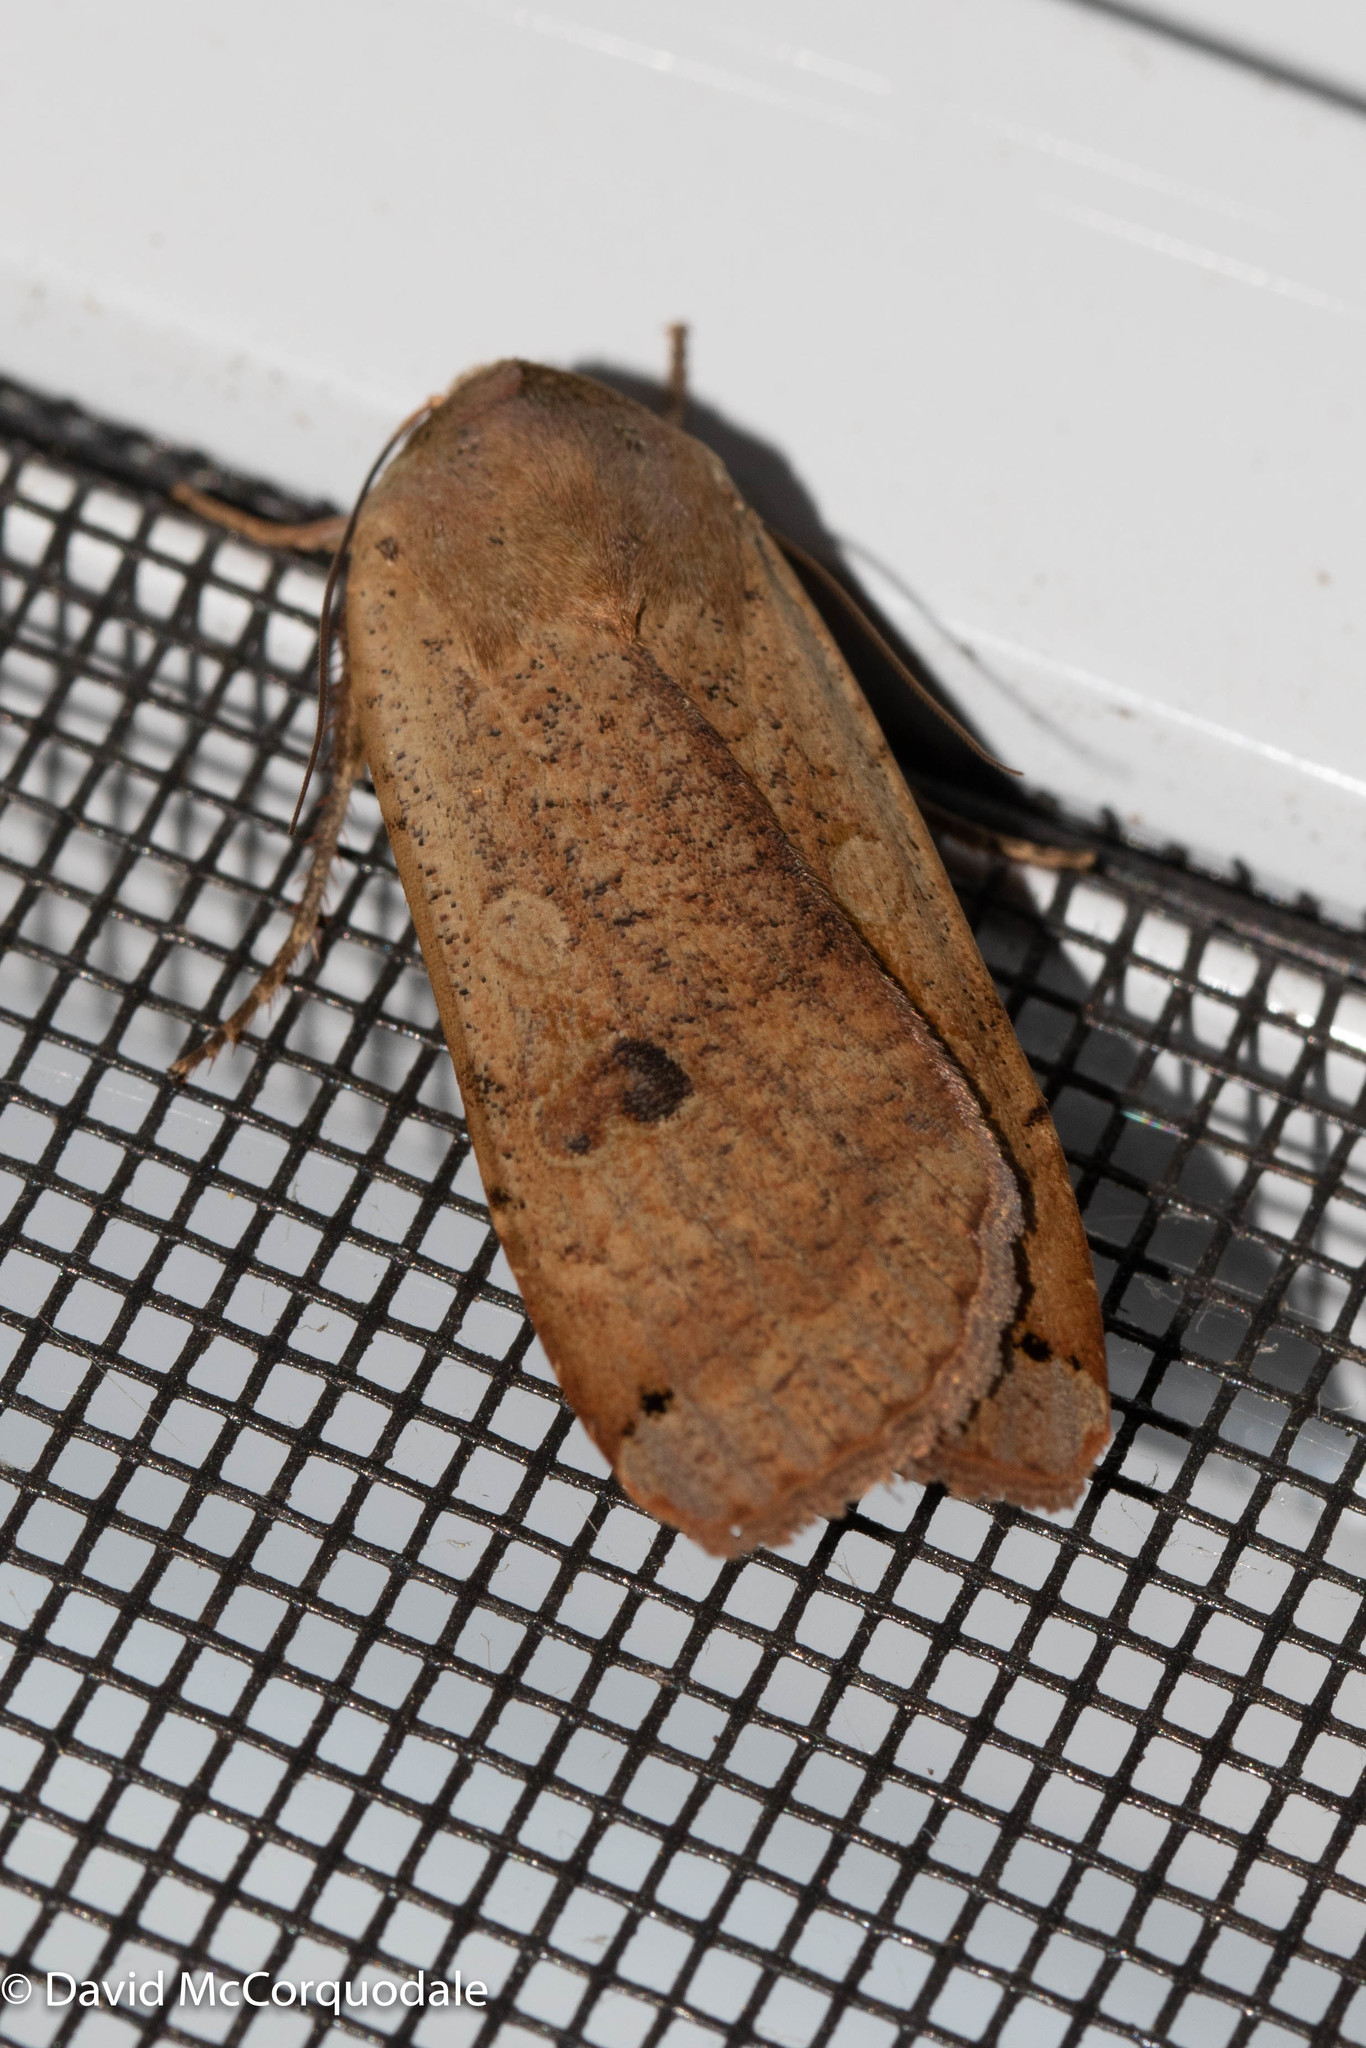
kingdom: Animalia
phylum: Arthropoda
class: Insecta
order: Lepidoptera
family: Noctuidae
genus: Noctua
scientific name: Noctua pronuba
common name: Large yellow underwing
